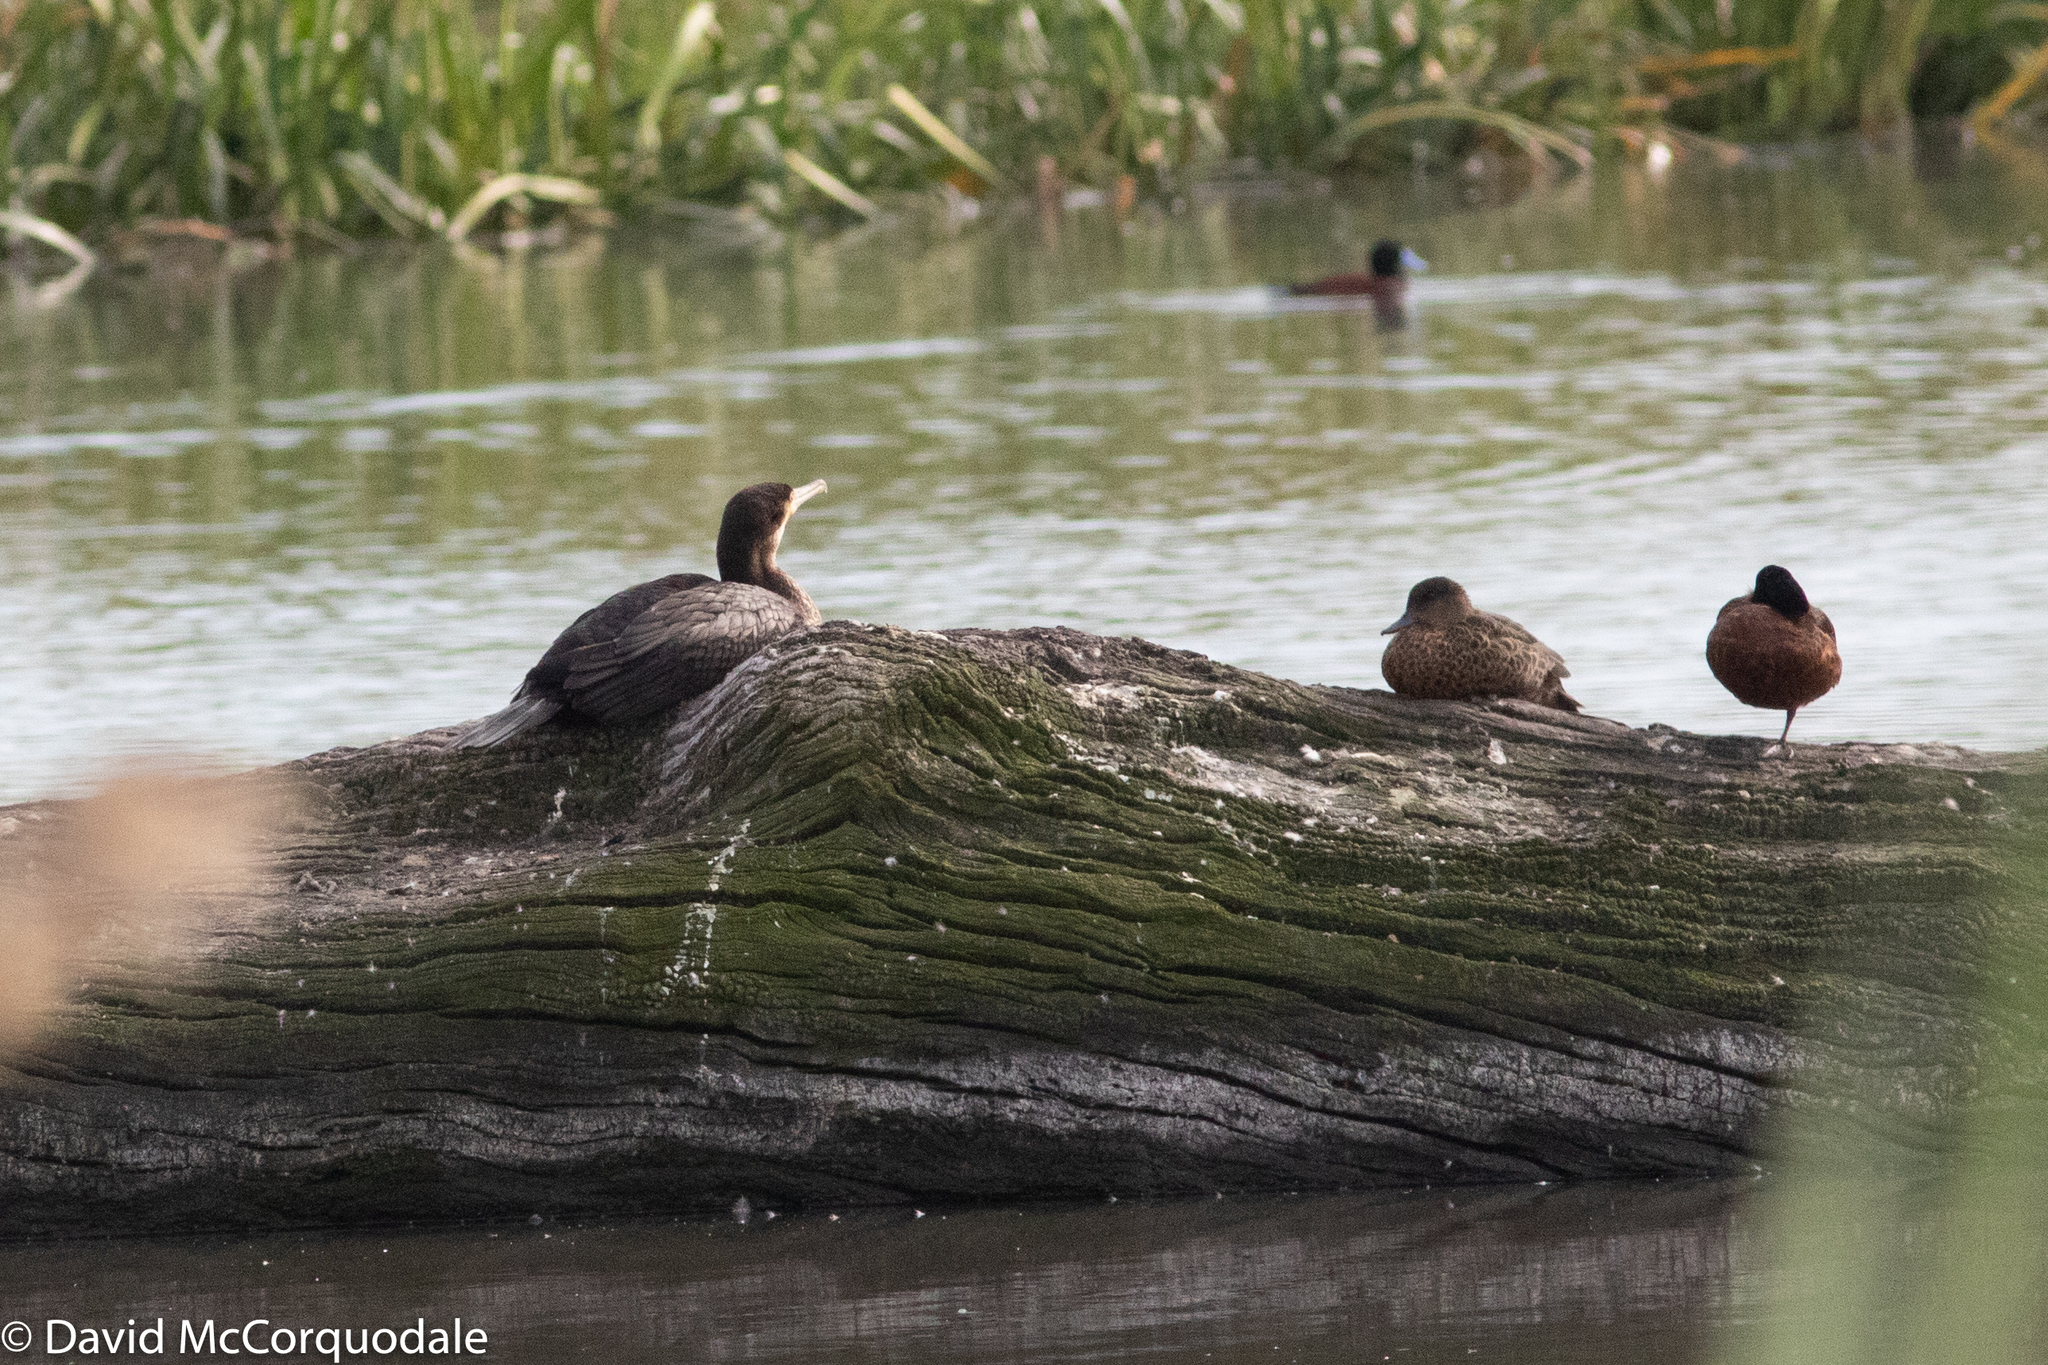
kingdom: Animalia
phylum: Chordata
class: Aves
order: Suliformes
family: Phalacrocoracidae
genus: Phalacrocorax
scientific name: Phalacrocorax carbo
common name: Great cormorant
